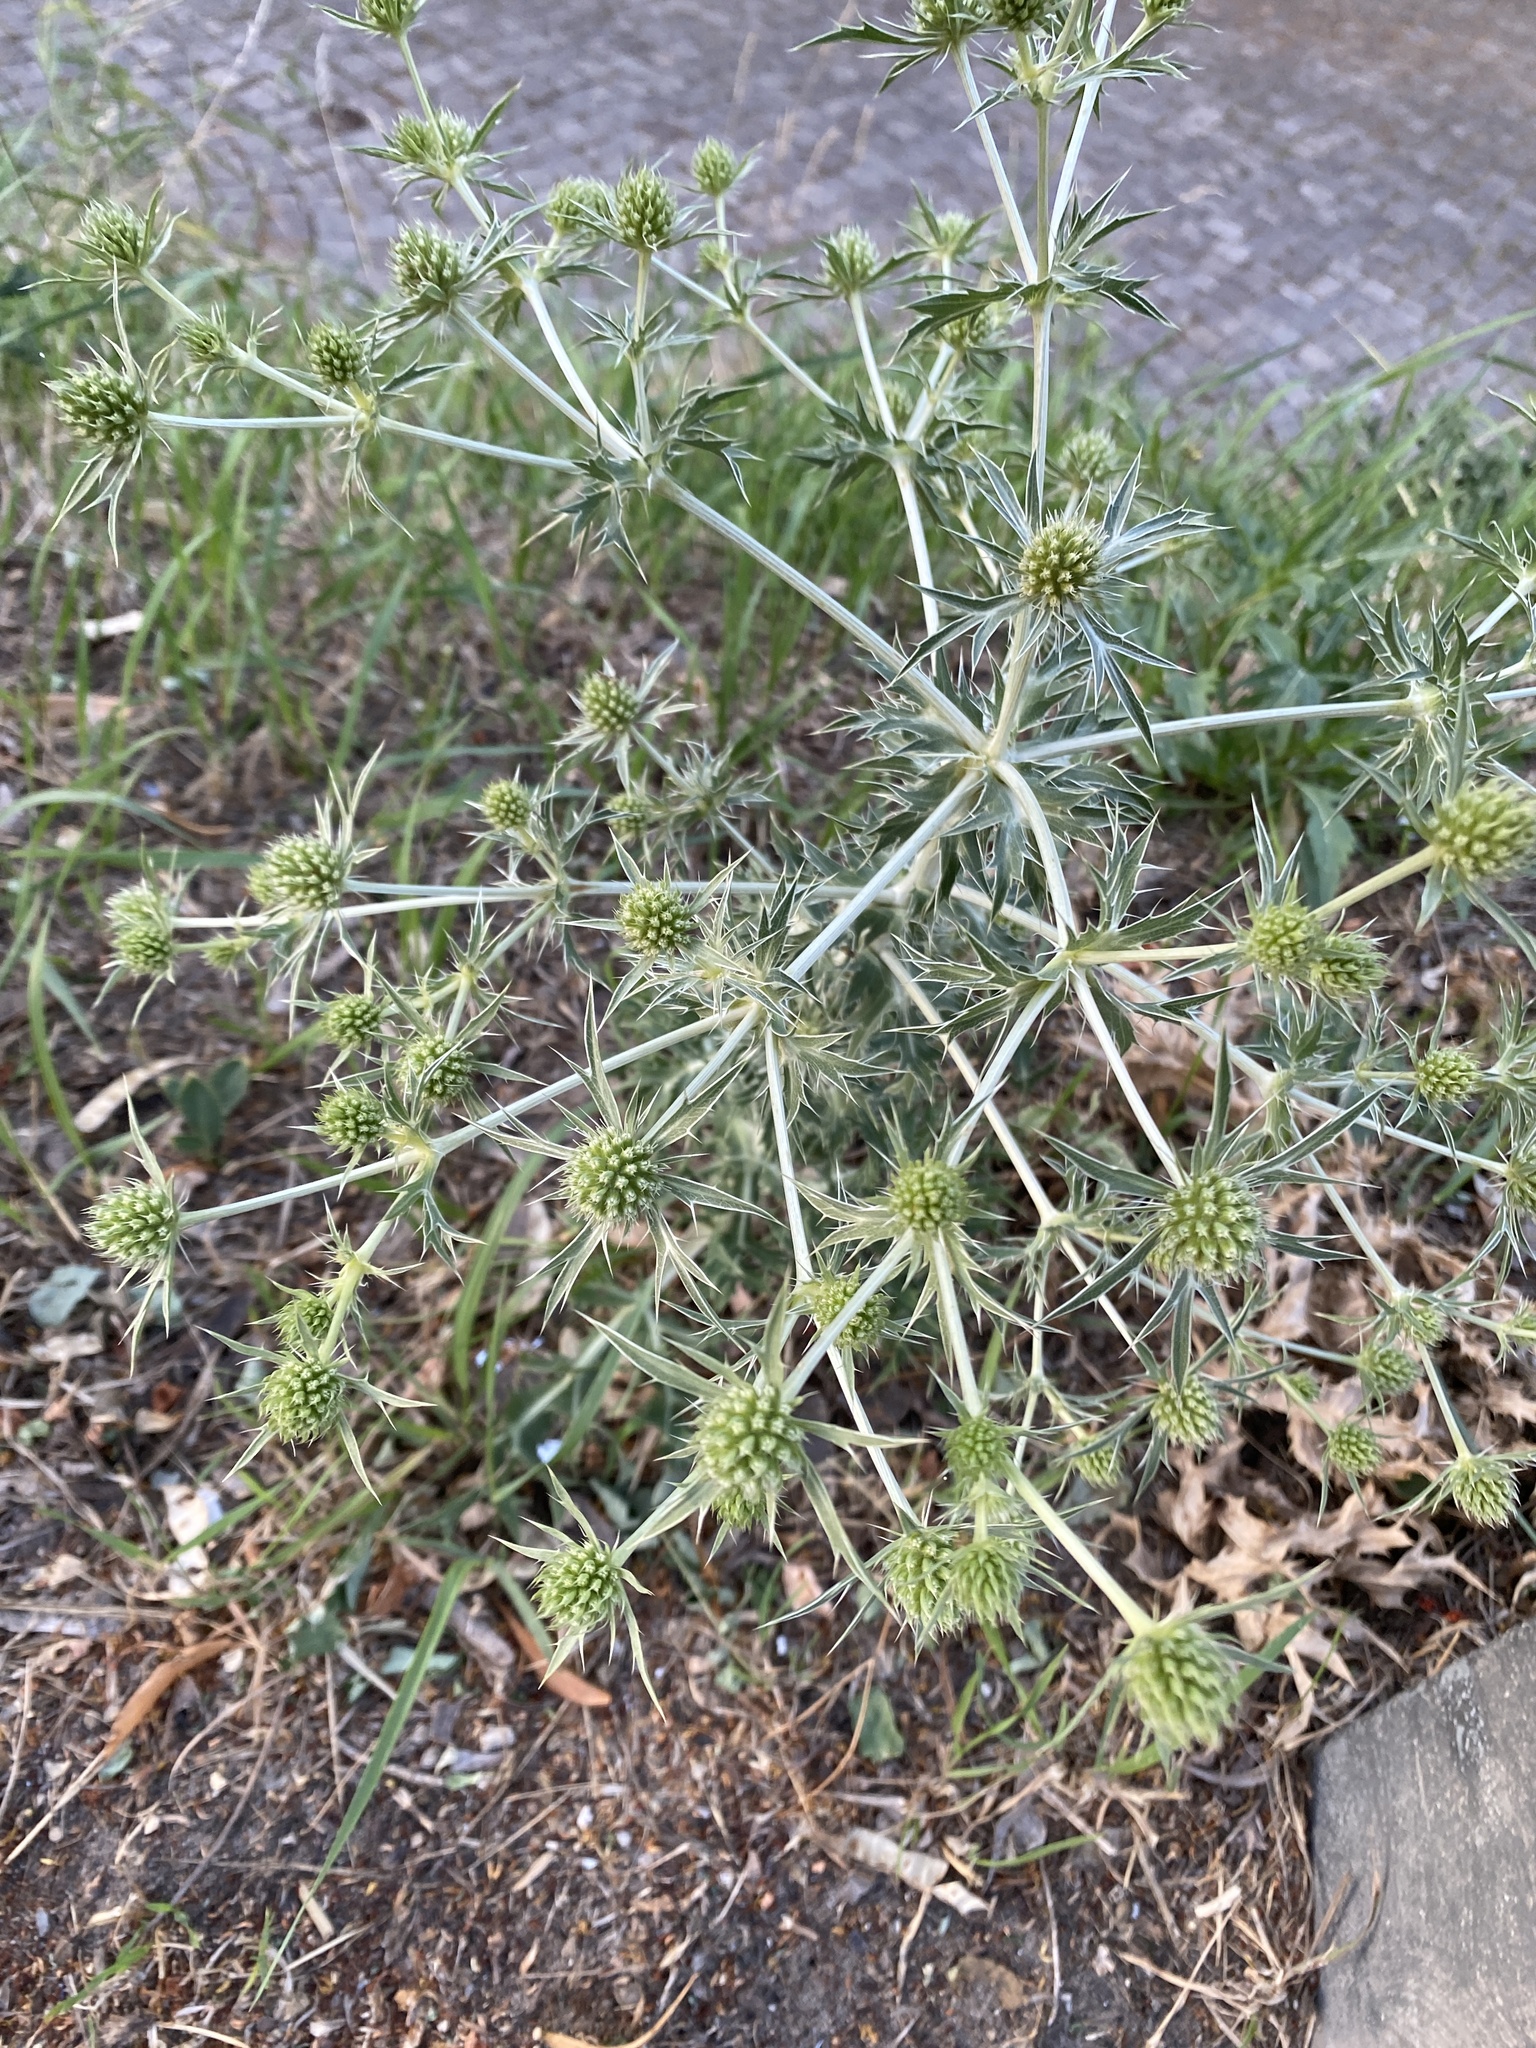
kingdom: Plantae
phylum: Tracheophyta
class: Magnoliopsida
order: Apiales
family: Apiaceae
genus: Eryngium
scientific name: Eryngium campestre
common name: Field eryngo
